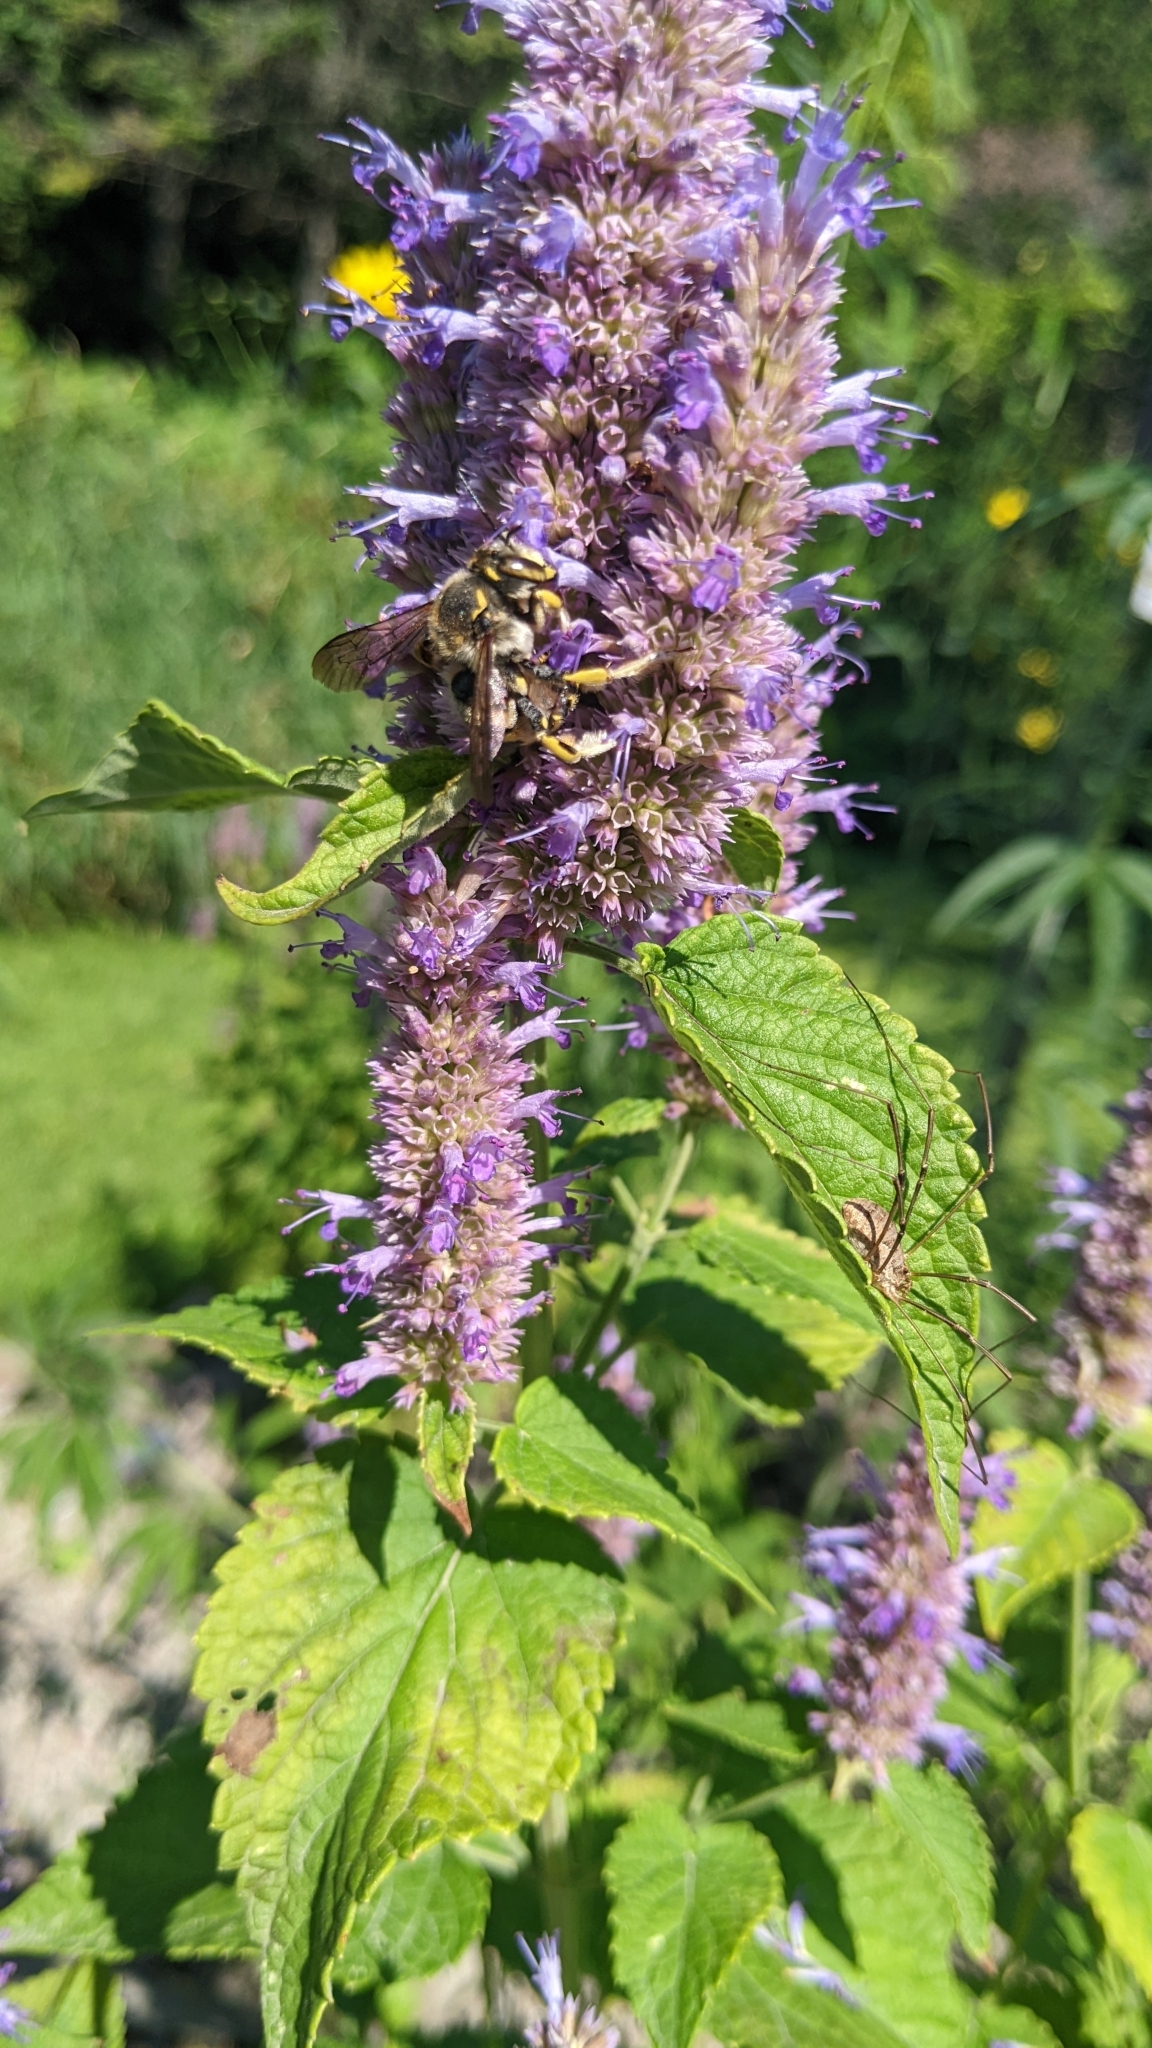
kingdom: Animalia
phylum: Arthropoda
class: Insecta
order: Hymenoptera
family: Megachilidae
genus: Anthidium
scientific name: Anthidium florentinum
